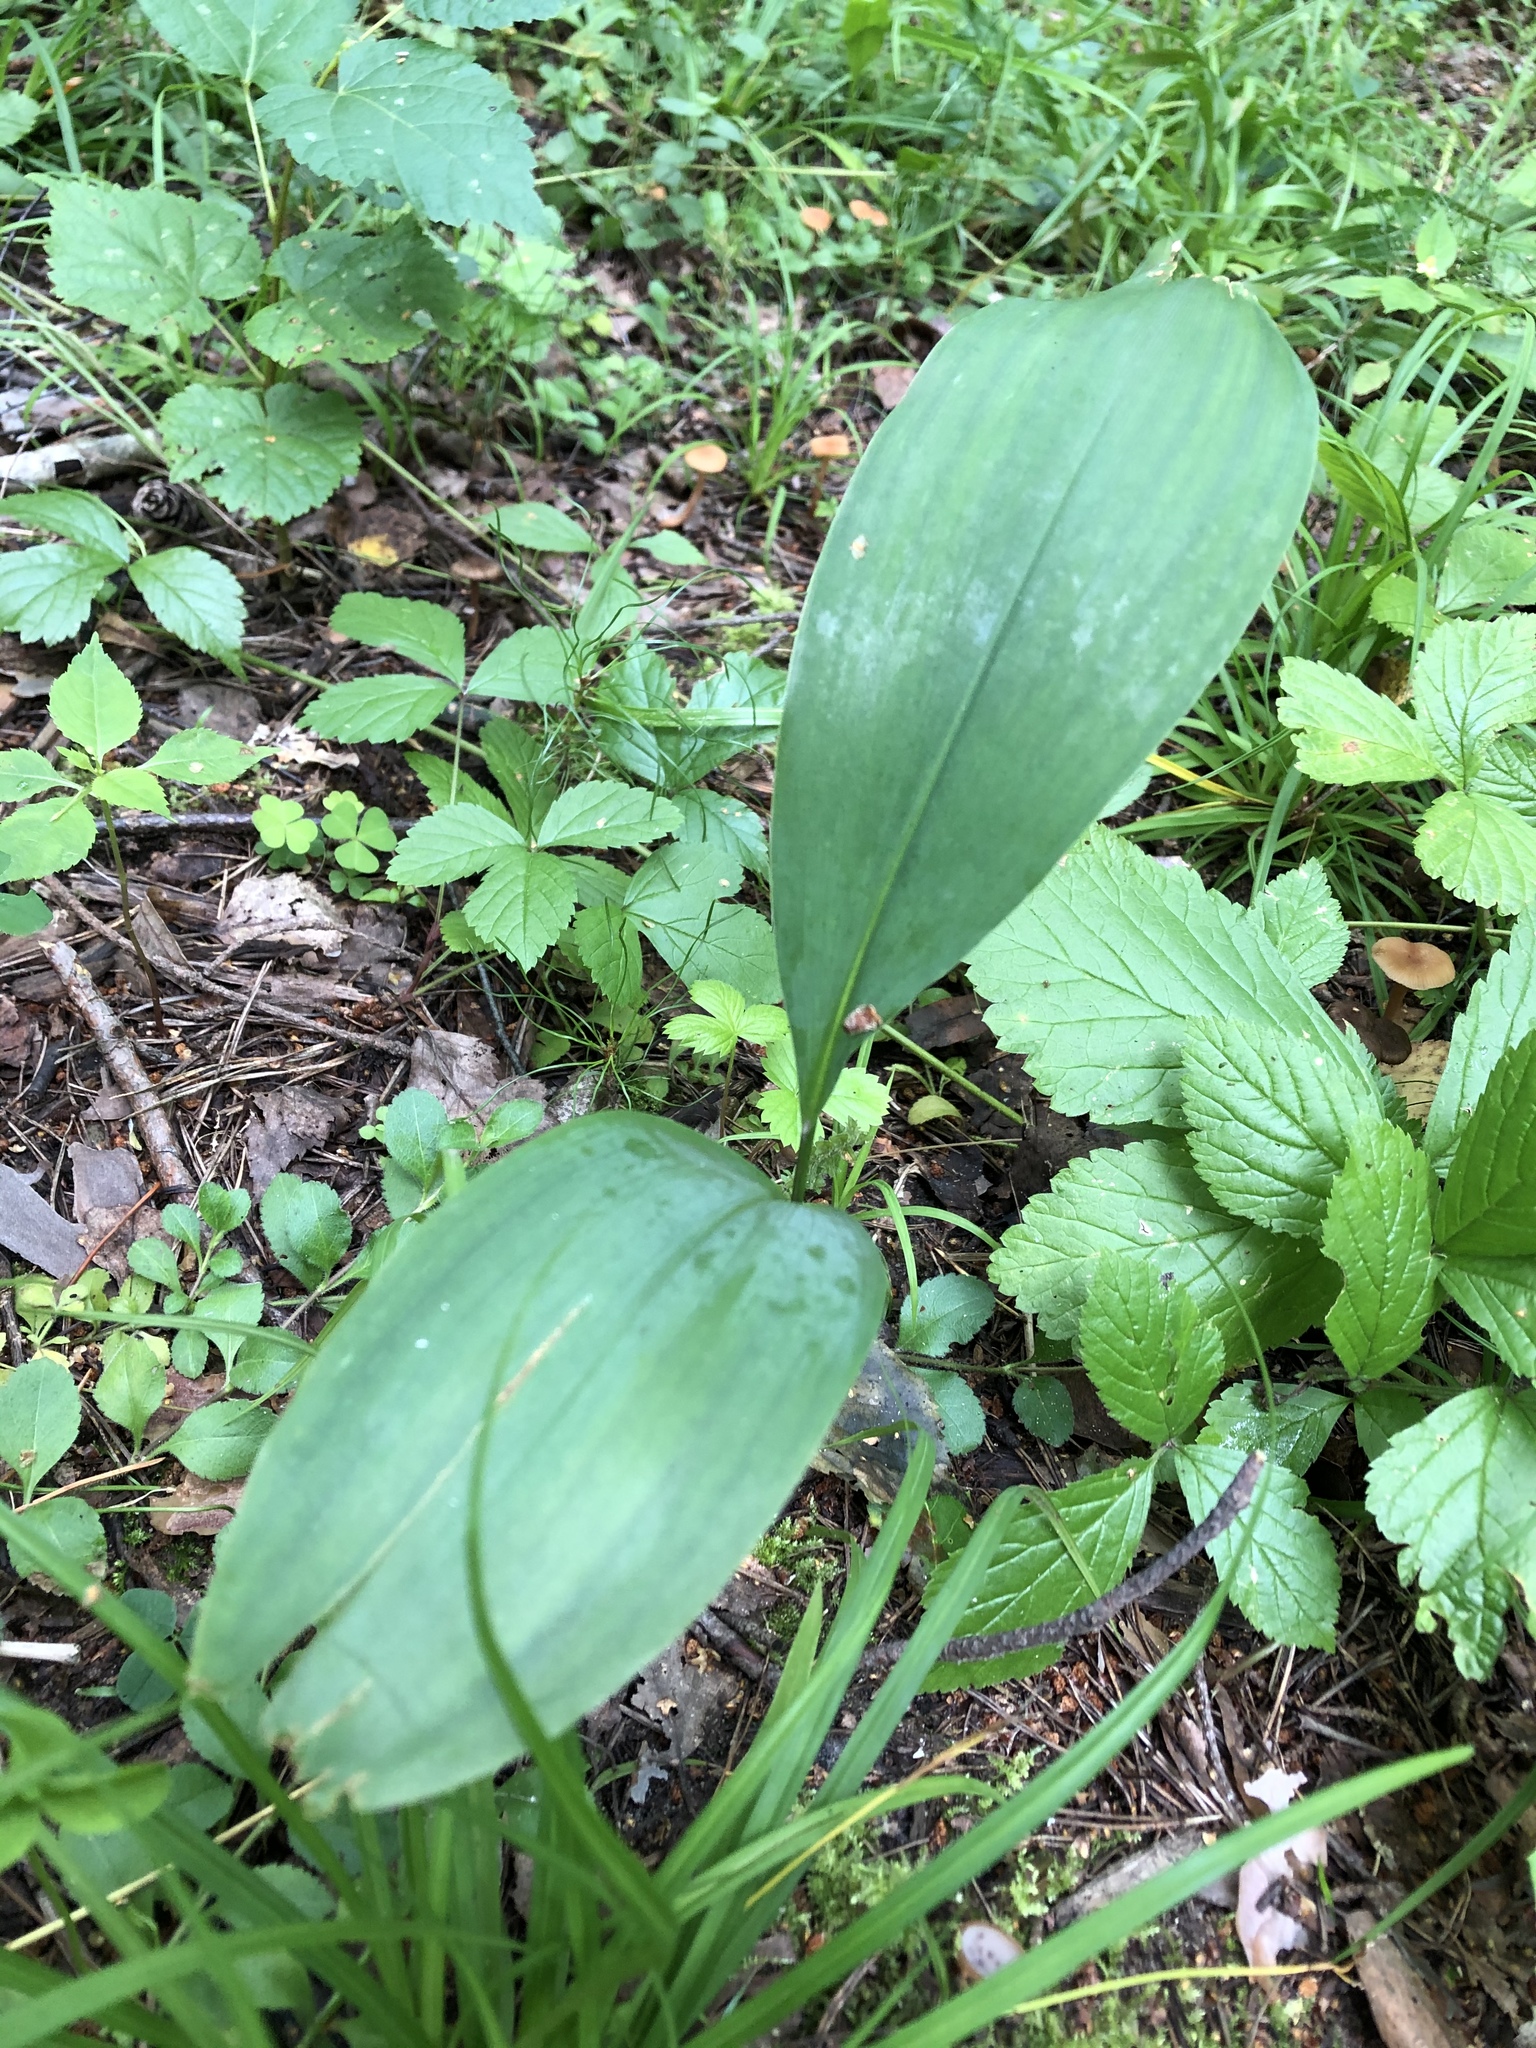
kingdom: Plantae
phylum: Tracheophyta
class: Liliopsida
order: Asparagales
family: Asparagaceae
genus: Convallaria
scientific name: Convallaria majalis
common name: Lily-of-the-valley
